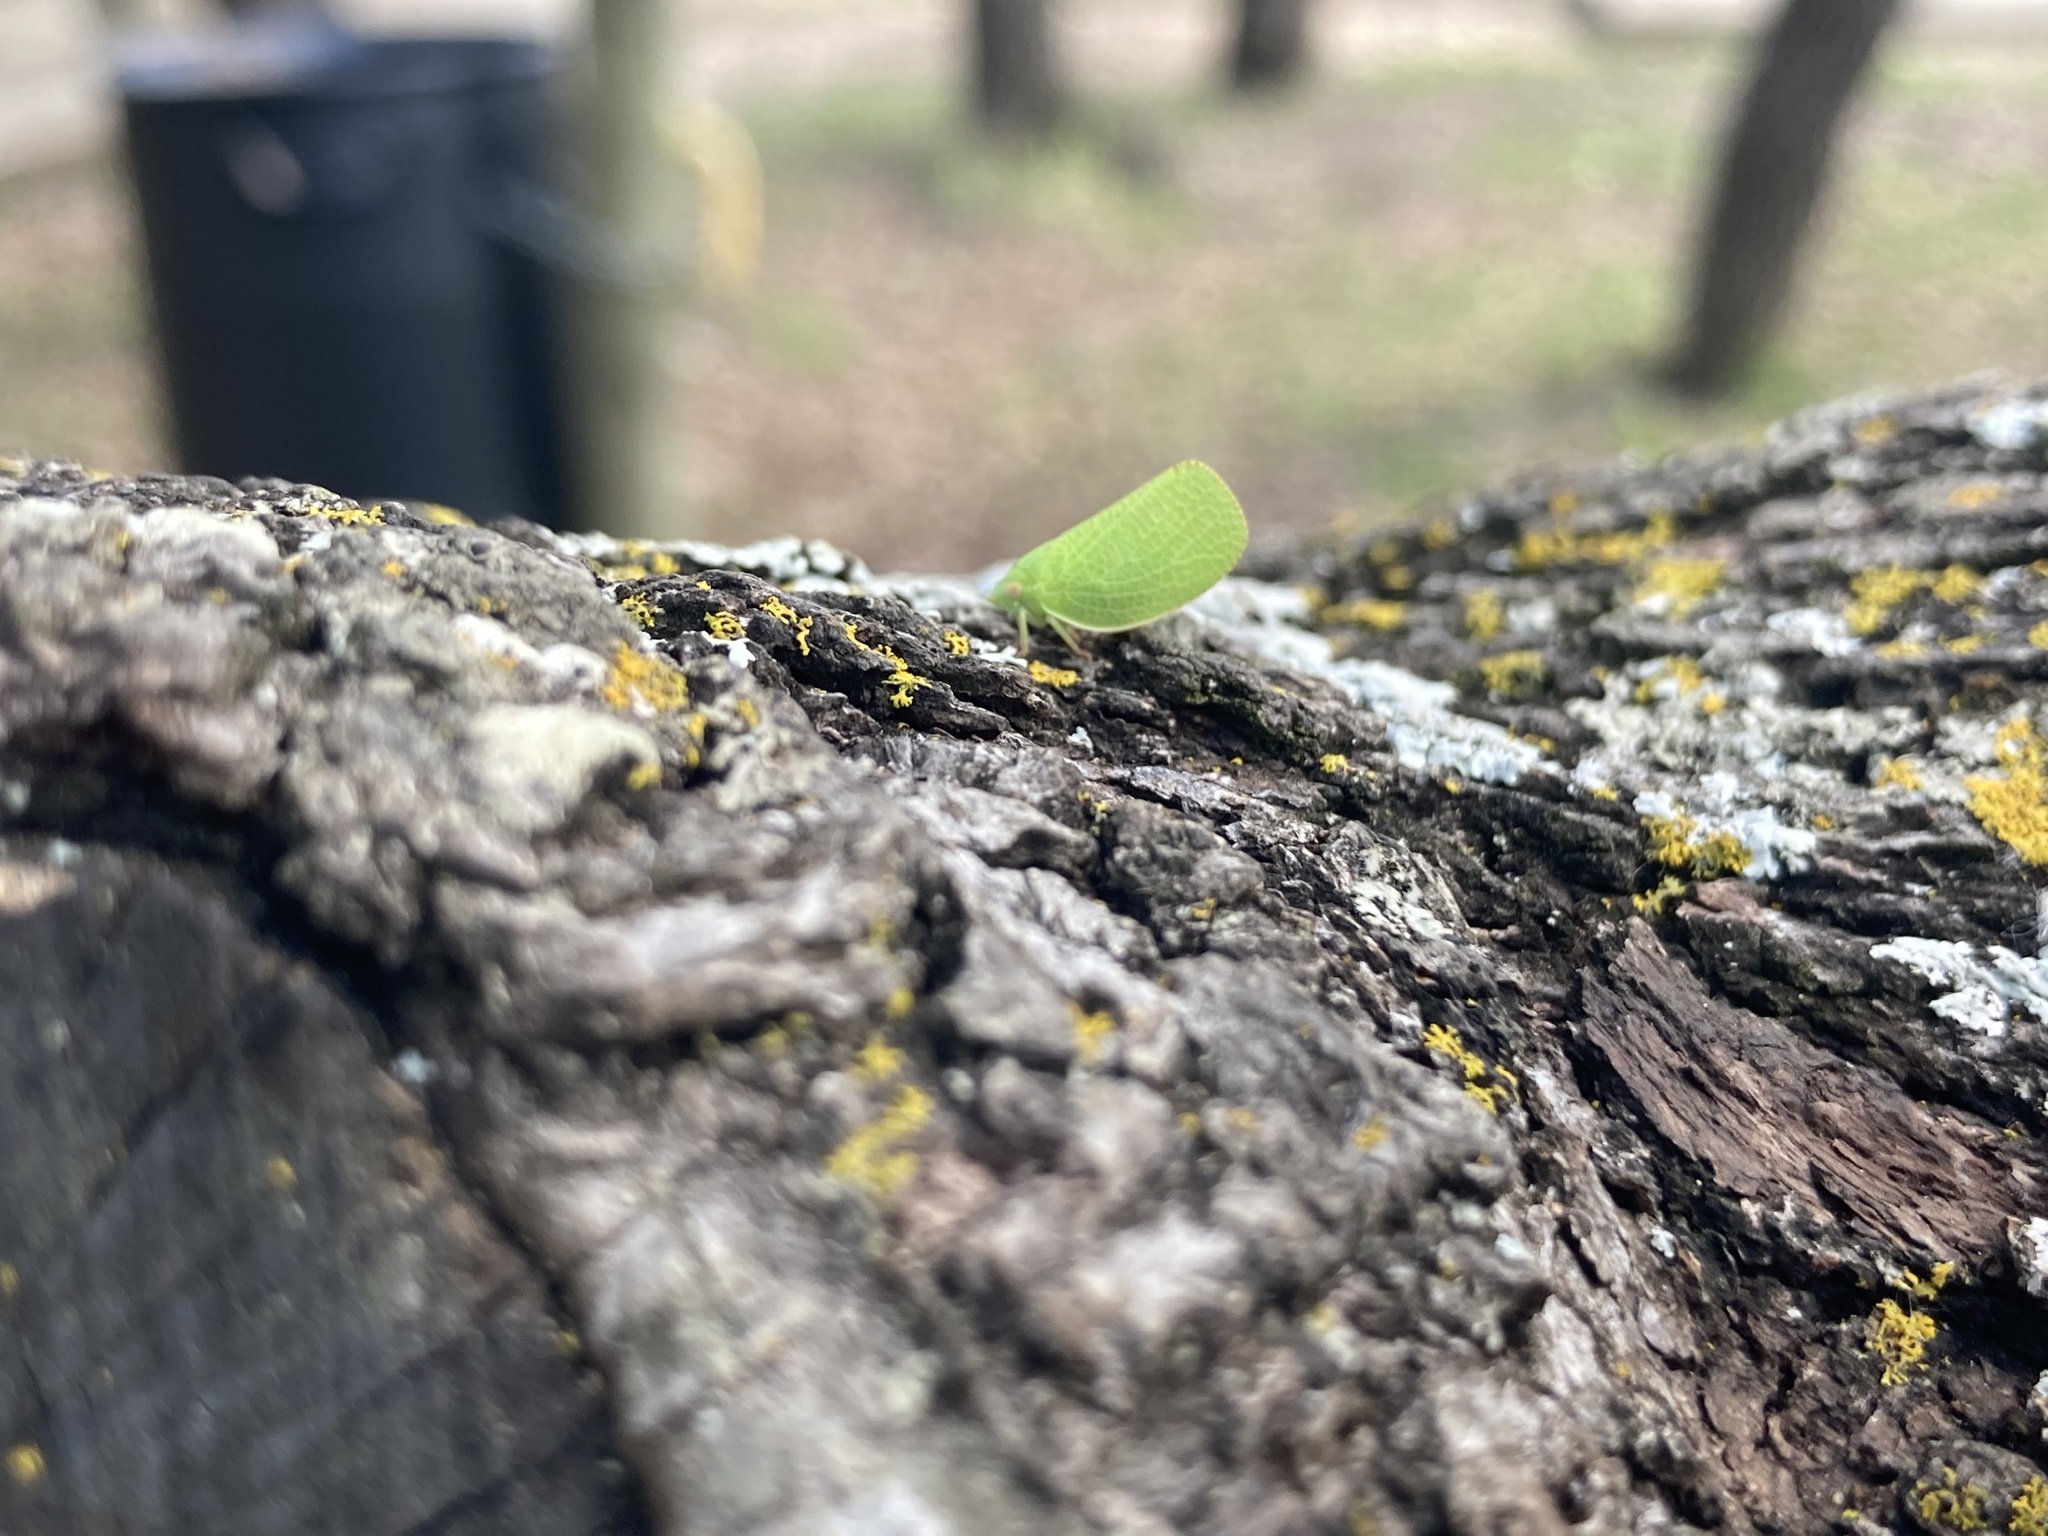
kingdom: Animalia
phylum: Arthropoda
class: Insecta
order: Hemiptera
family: Acanaloniidae
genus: Acanalonia
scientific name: Acanalonia conica
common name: Green cone-headed planthopper
